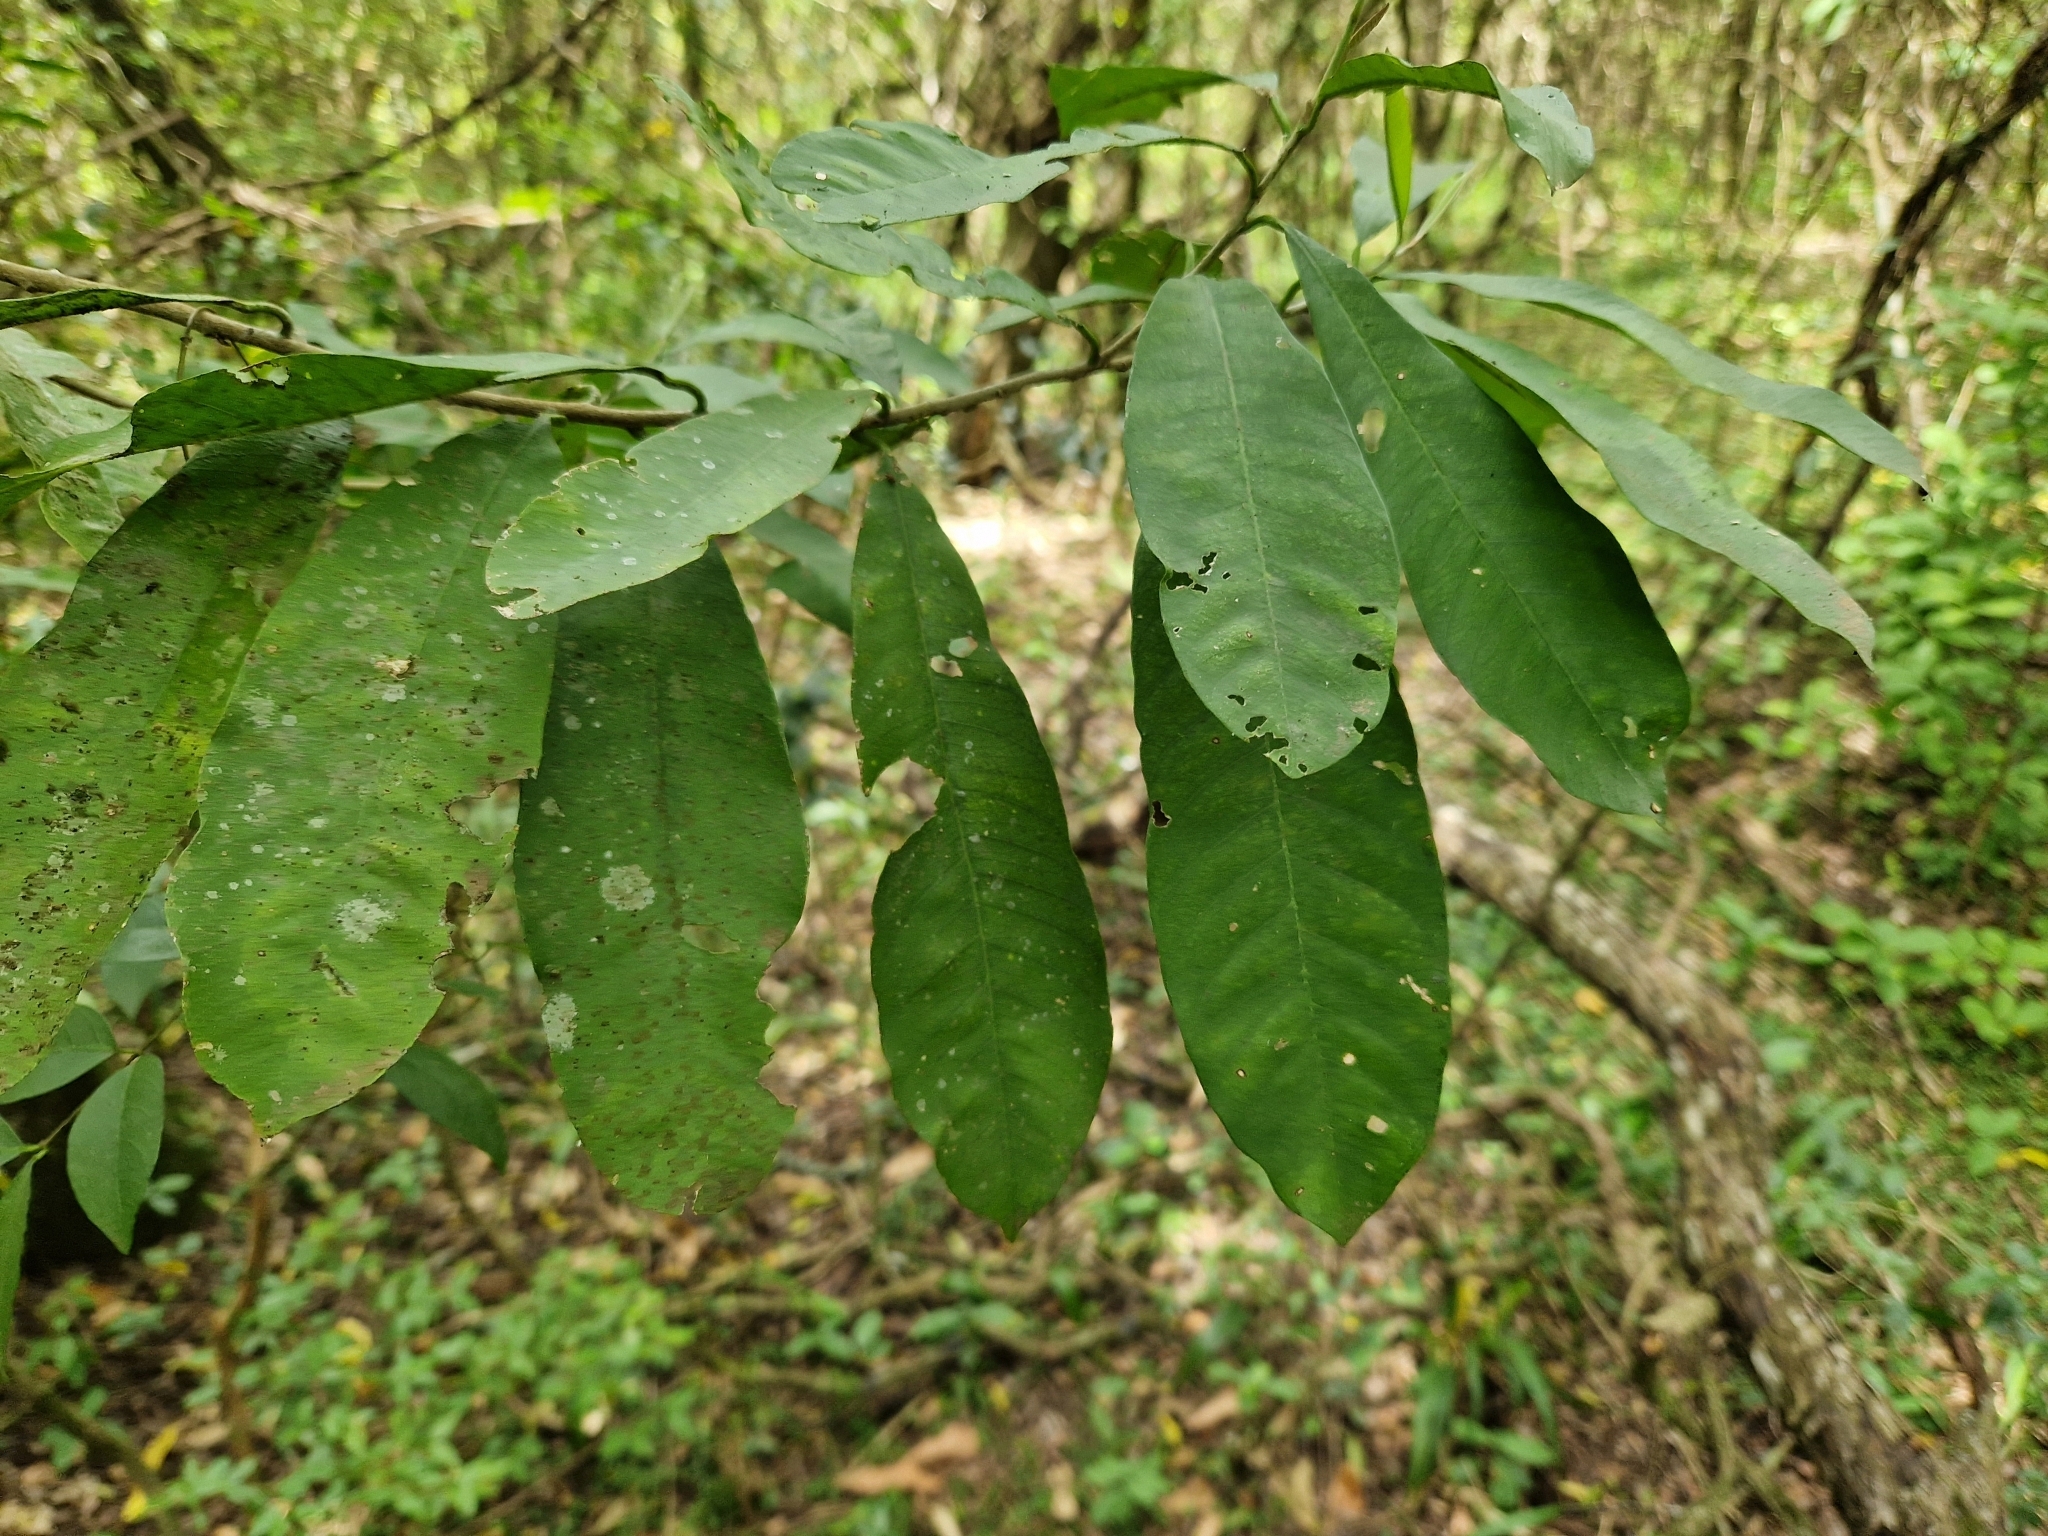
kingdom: Plantae
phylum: Tracheophyta
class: Magnoliopsida
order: Ericales
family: Sapotaceae
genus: Chrysophyllum
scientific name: Chrysophyllum gonocarpum
